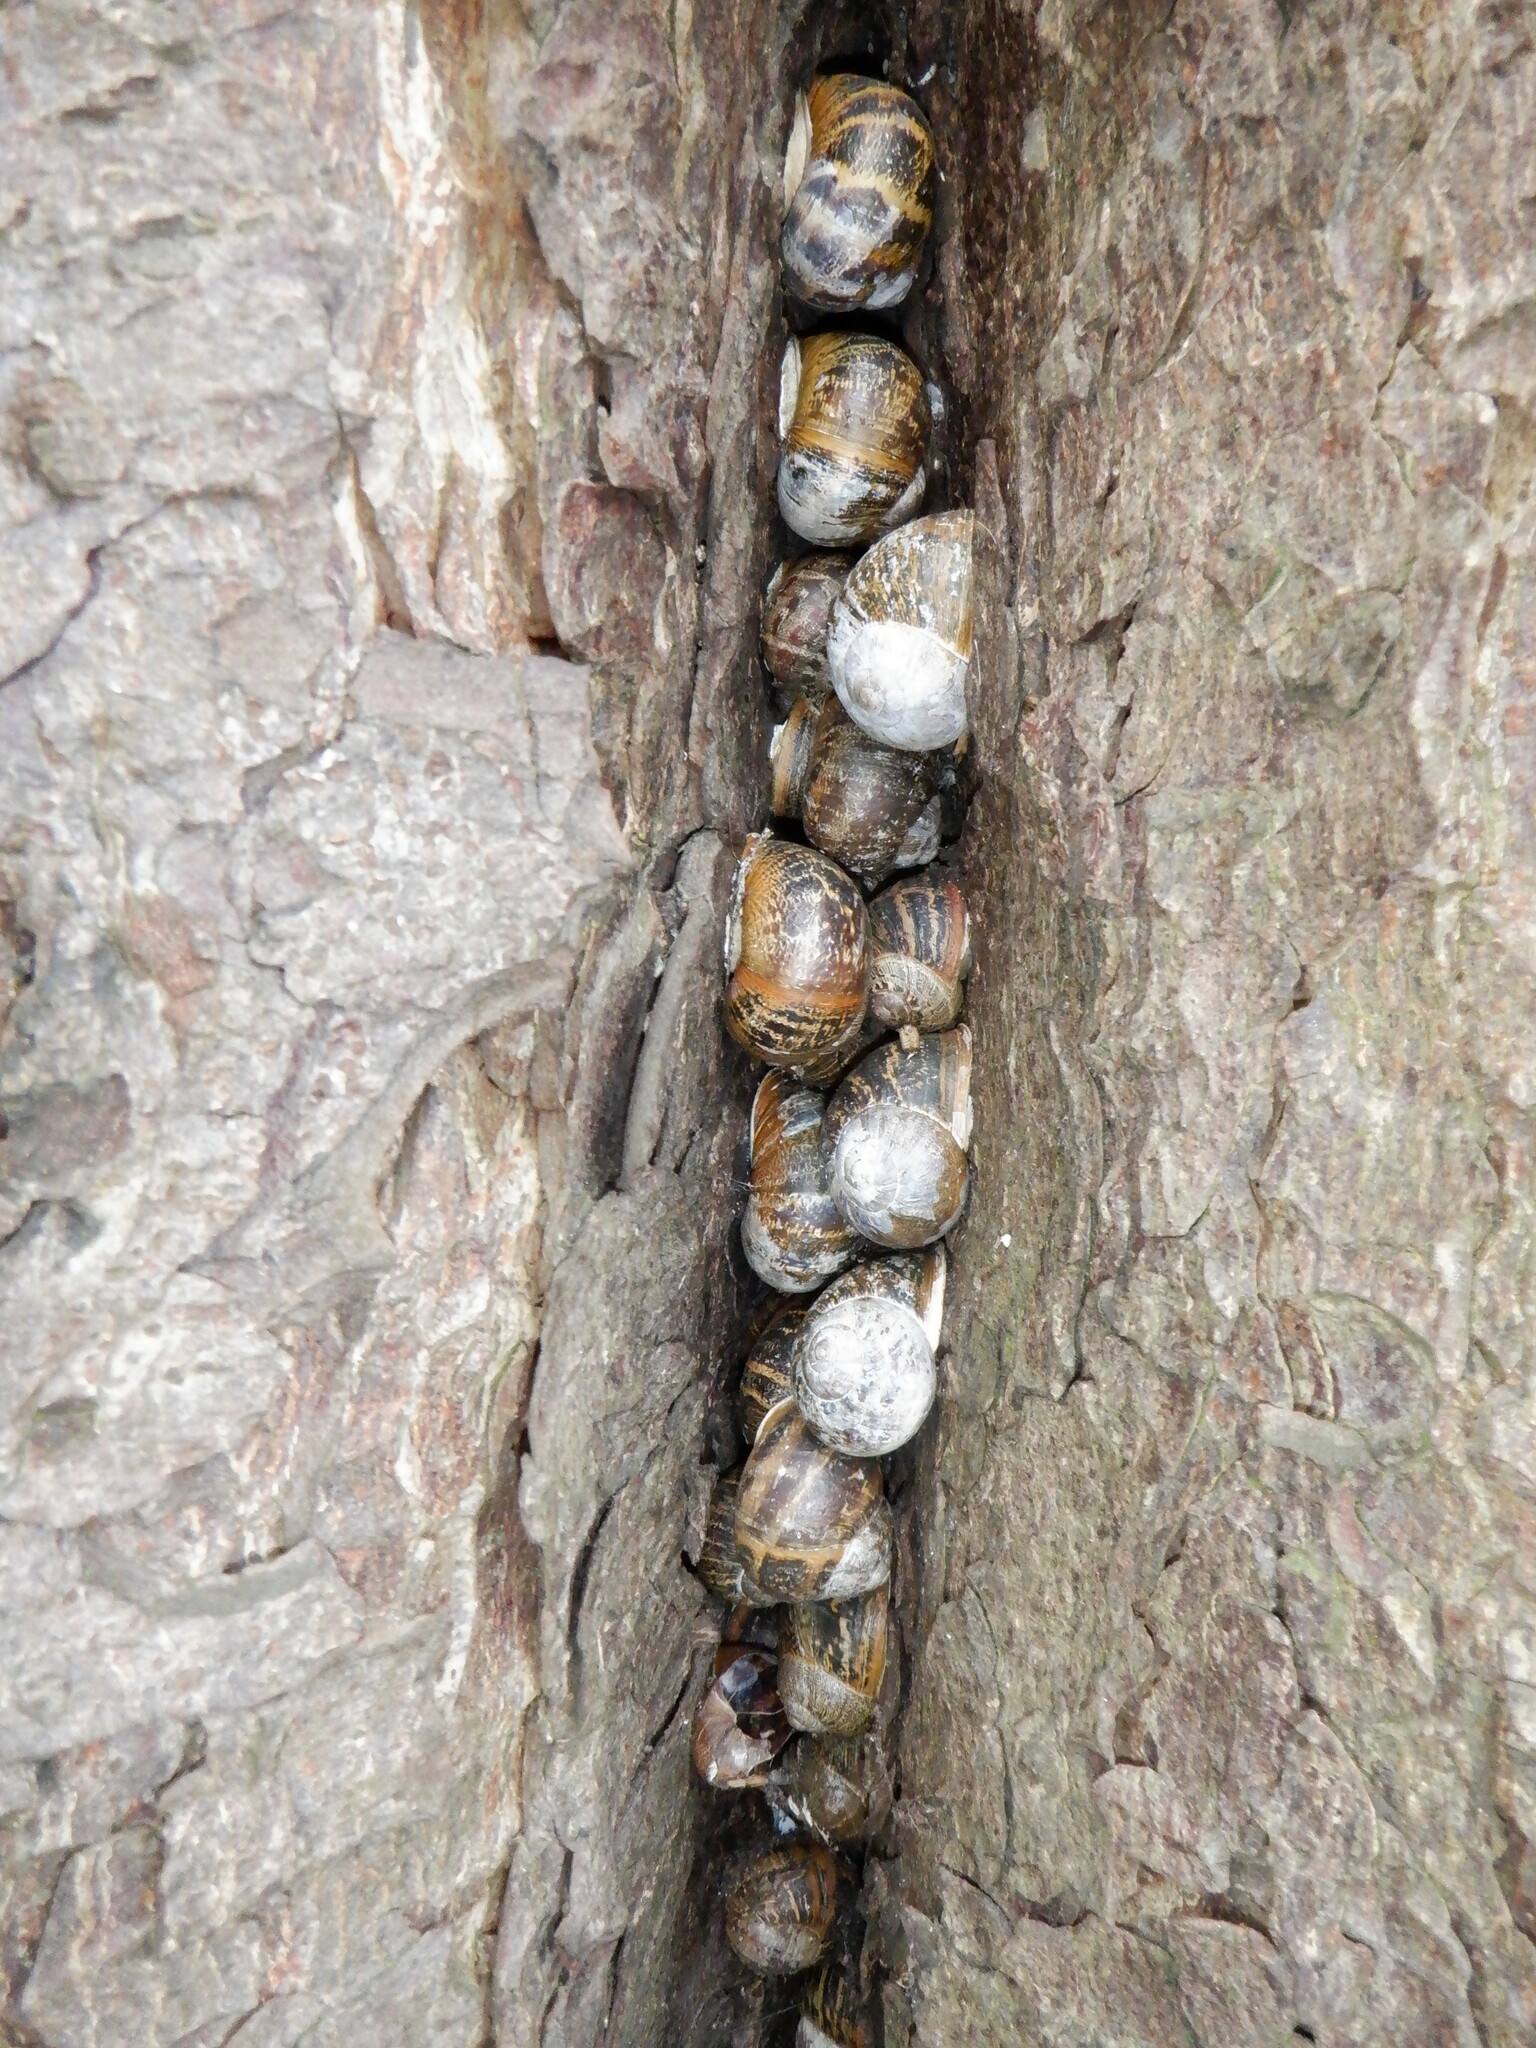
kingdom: Animalia
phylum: Mollusca
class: Gastropoda
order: Stylommatophora
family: Helicidae
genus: Cornu
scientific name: Cornu aspersum
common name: Brown garden snail
